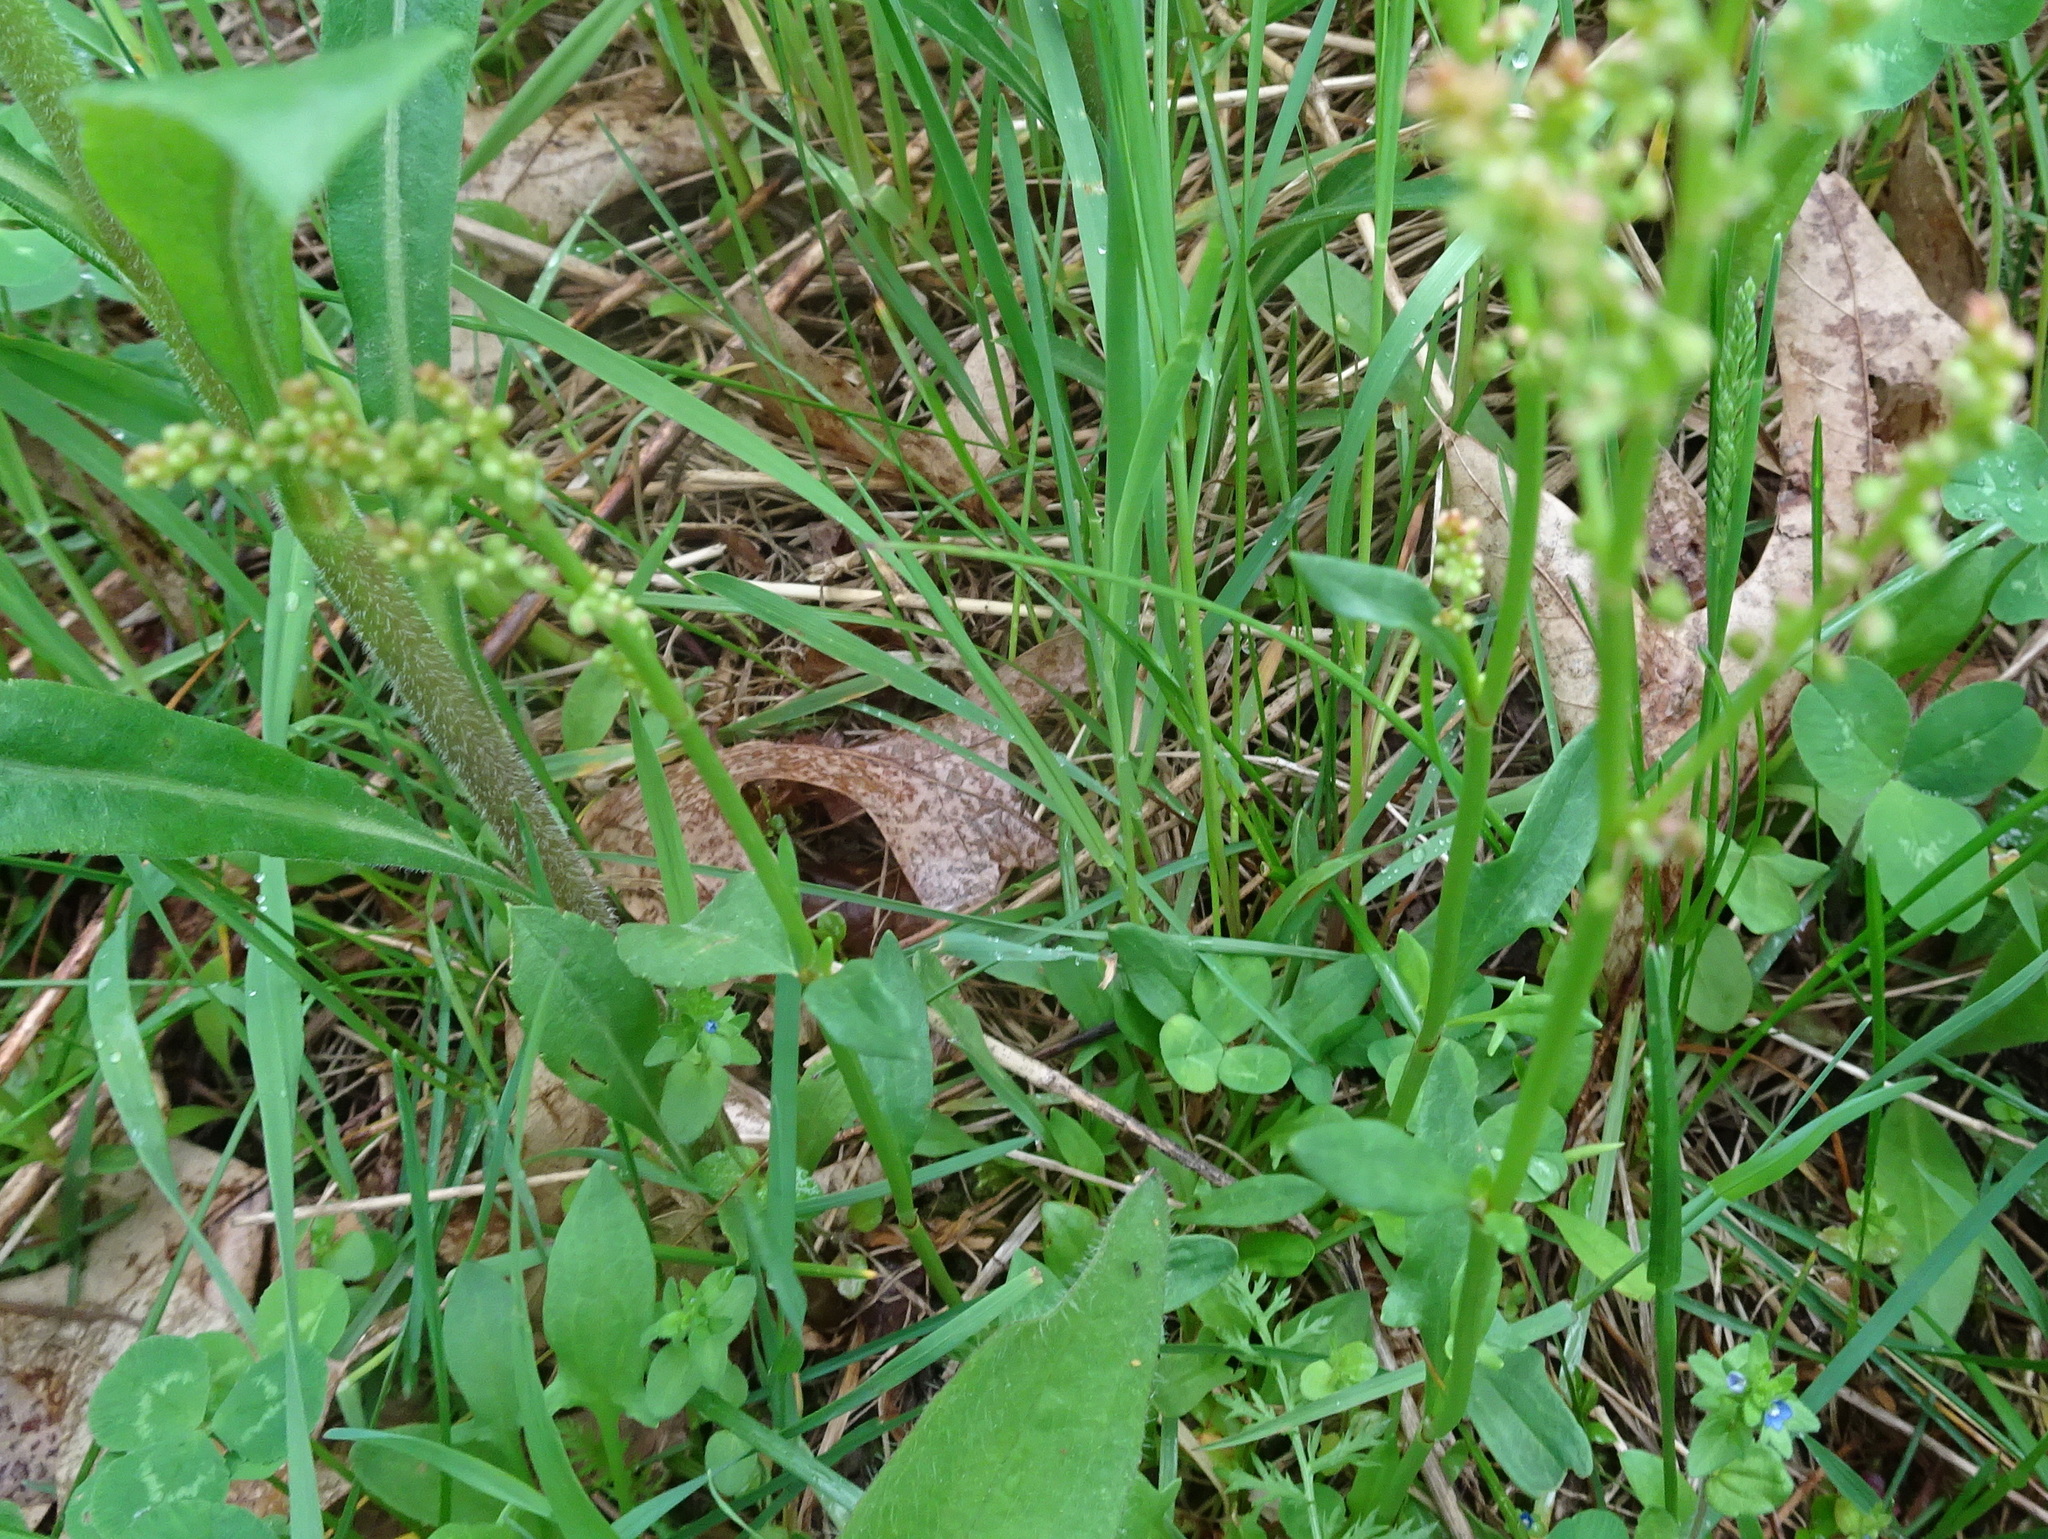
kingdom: Plantae
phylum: Tracheophyta
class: Magnoliopsida
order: Caryophyllales
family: Polygonaceae
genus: Rumex
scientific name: Rumex acetosella
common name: Common sheep sorrel
